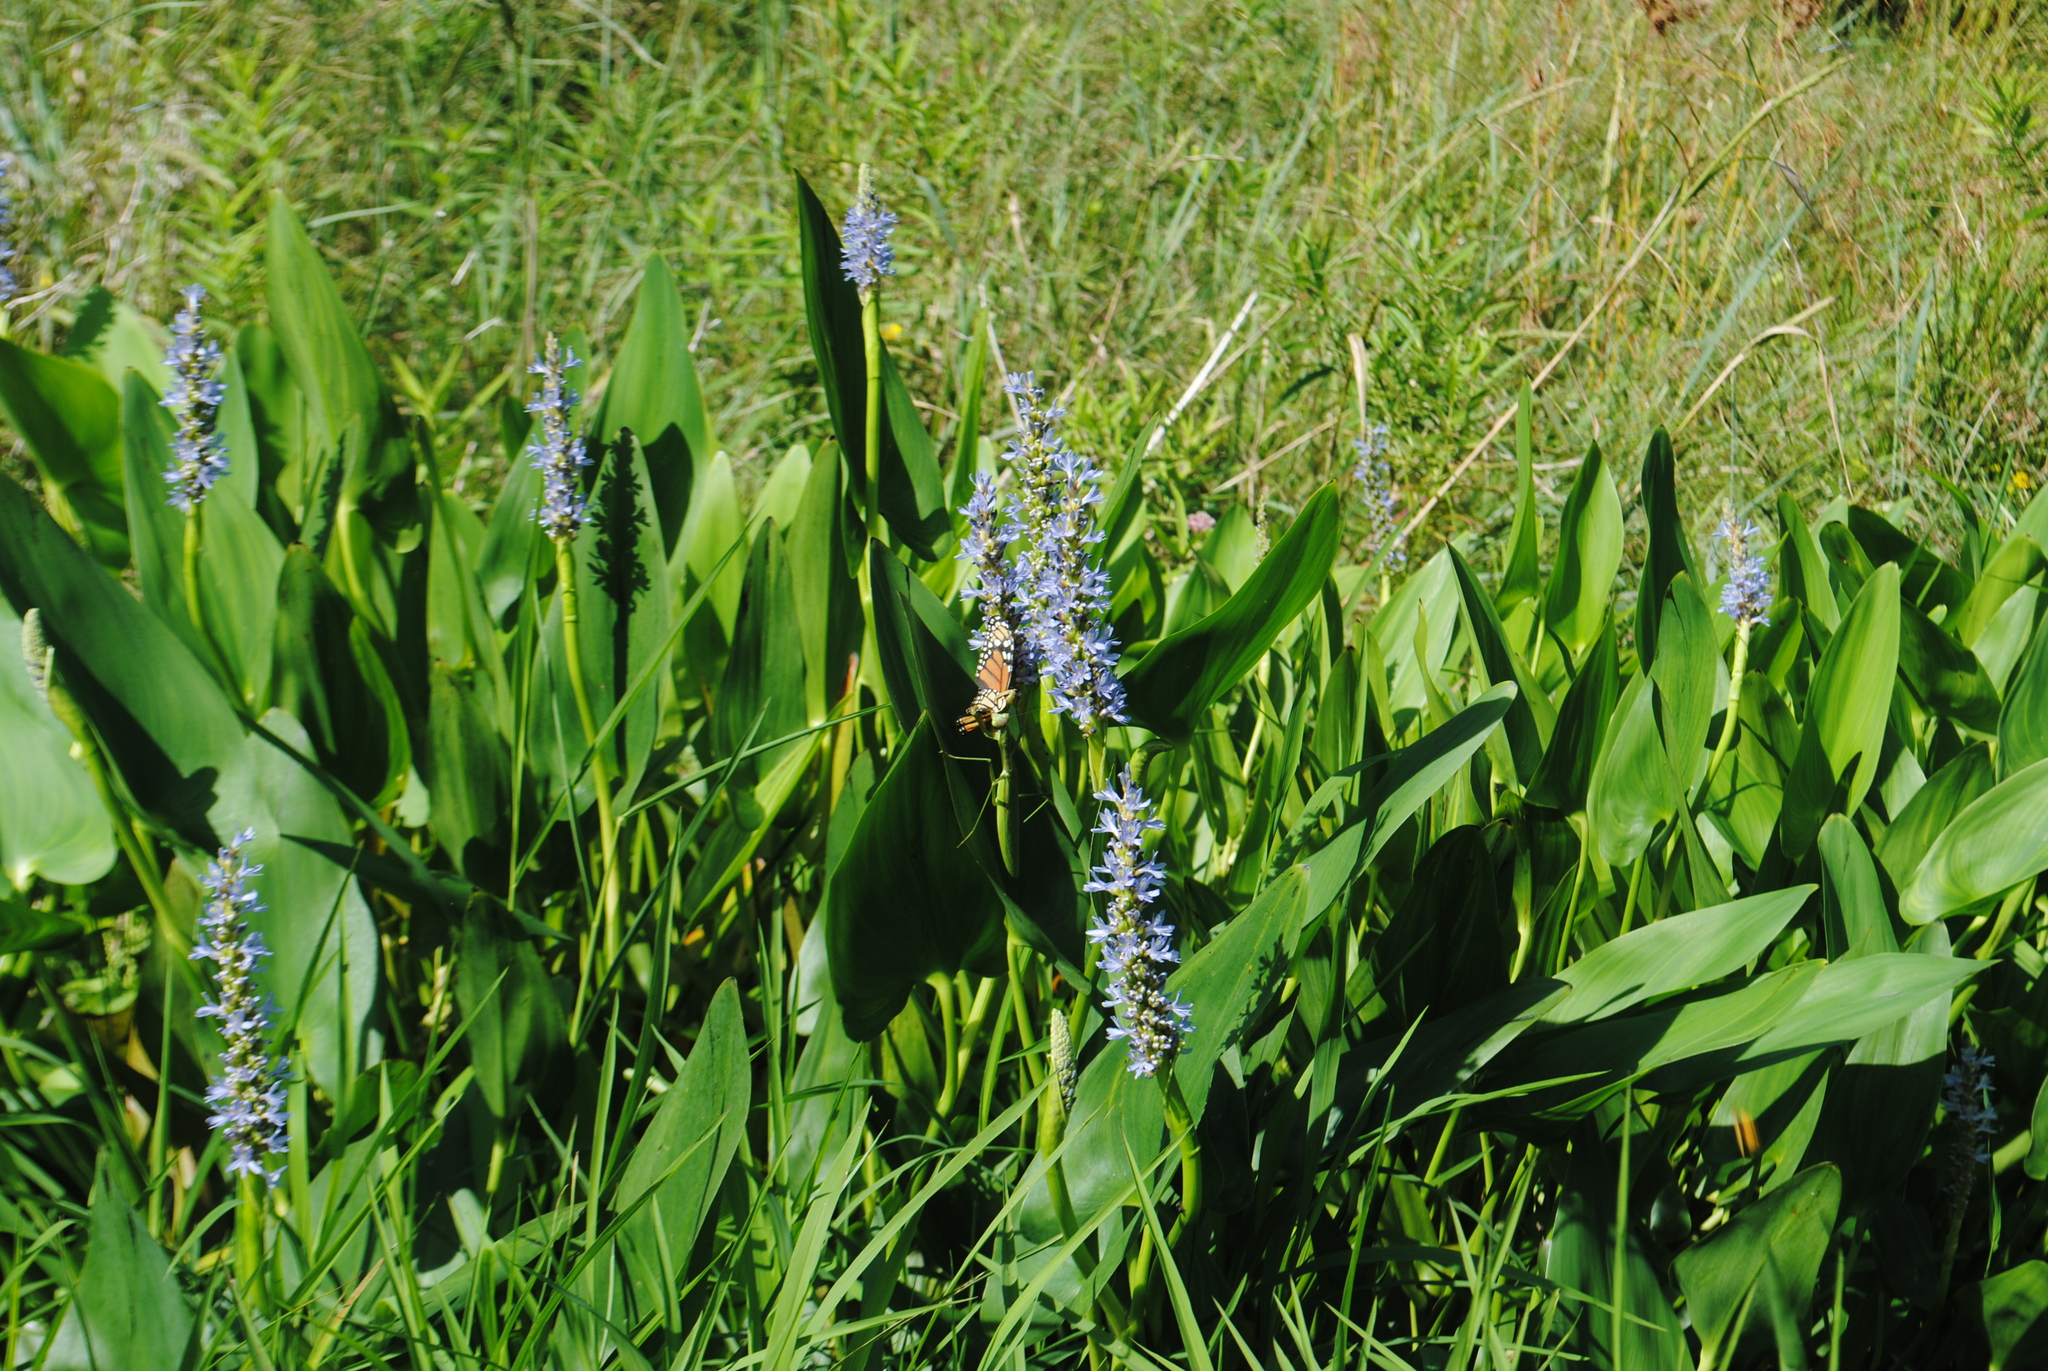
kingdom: Plantae
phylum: Tracheophyta
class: Liliopsida
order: Commelinales
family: Pontederiaceae
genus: Pontederia
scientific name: Pontederia cordata
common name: Pickerelweed
